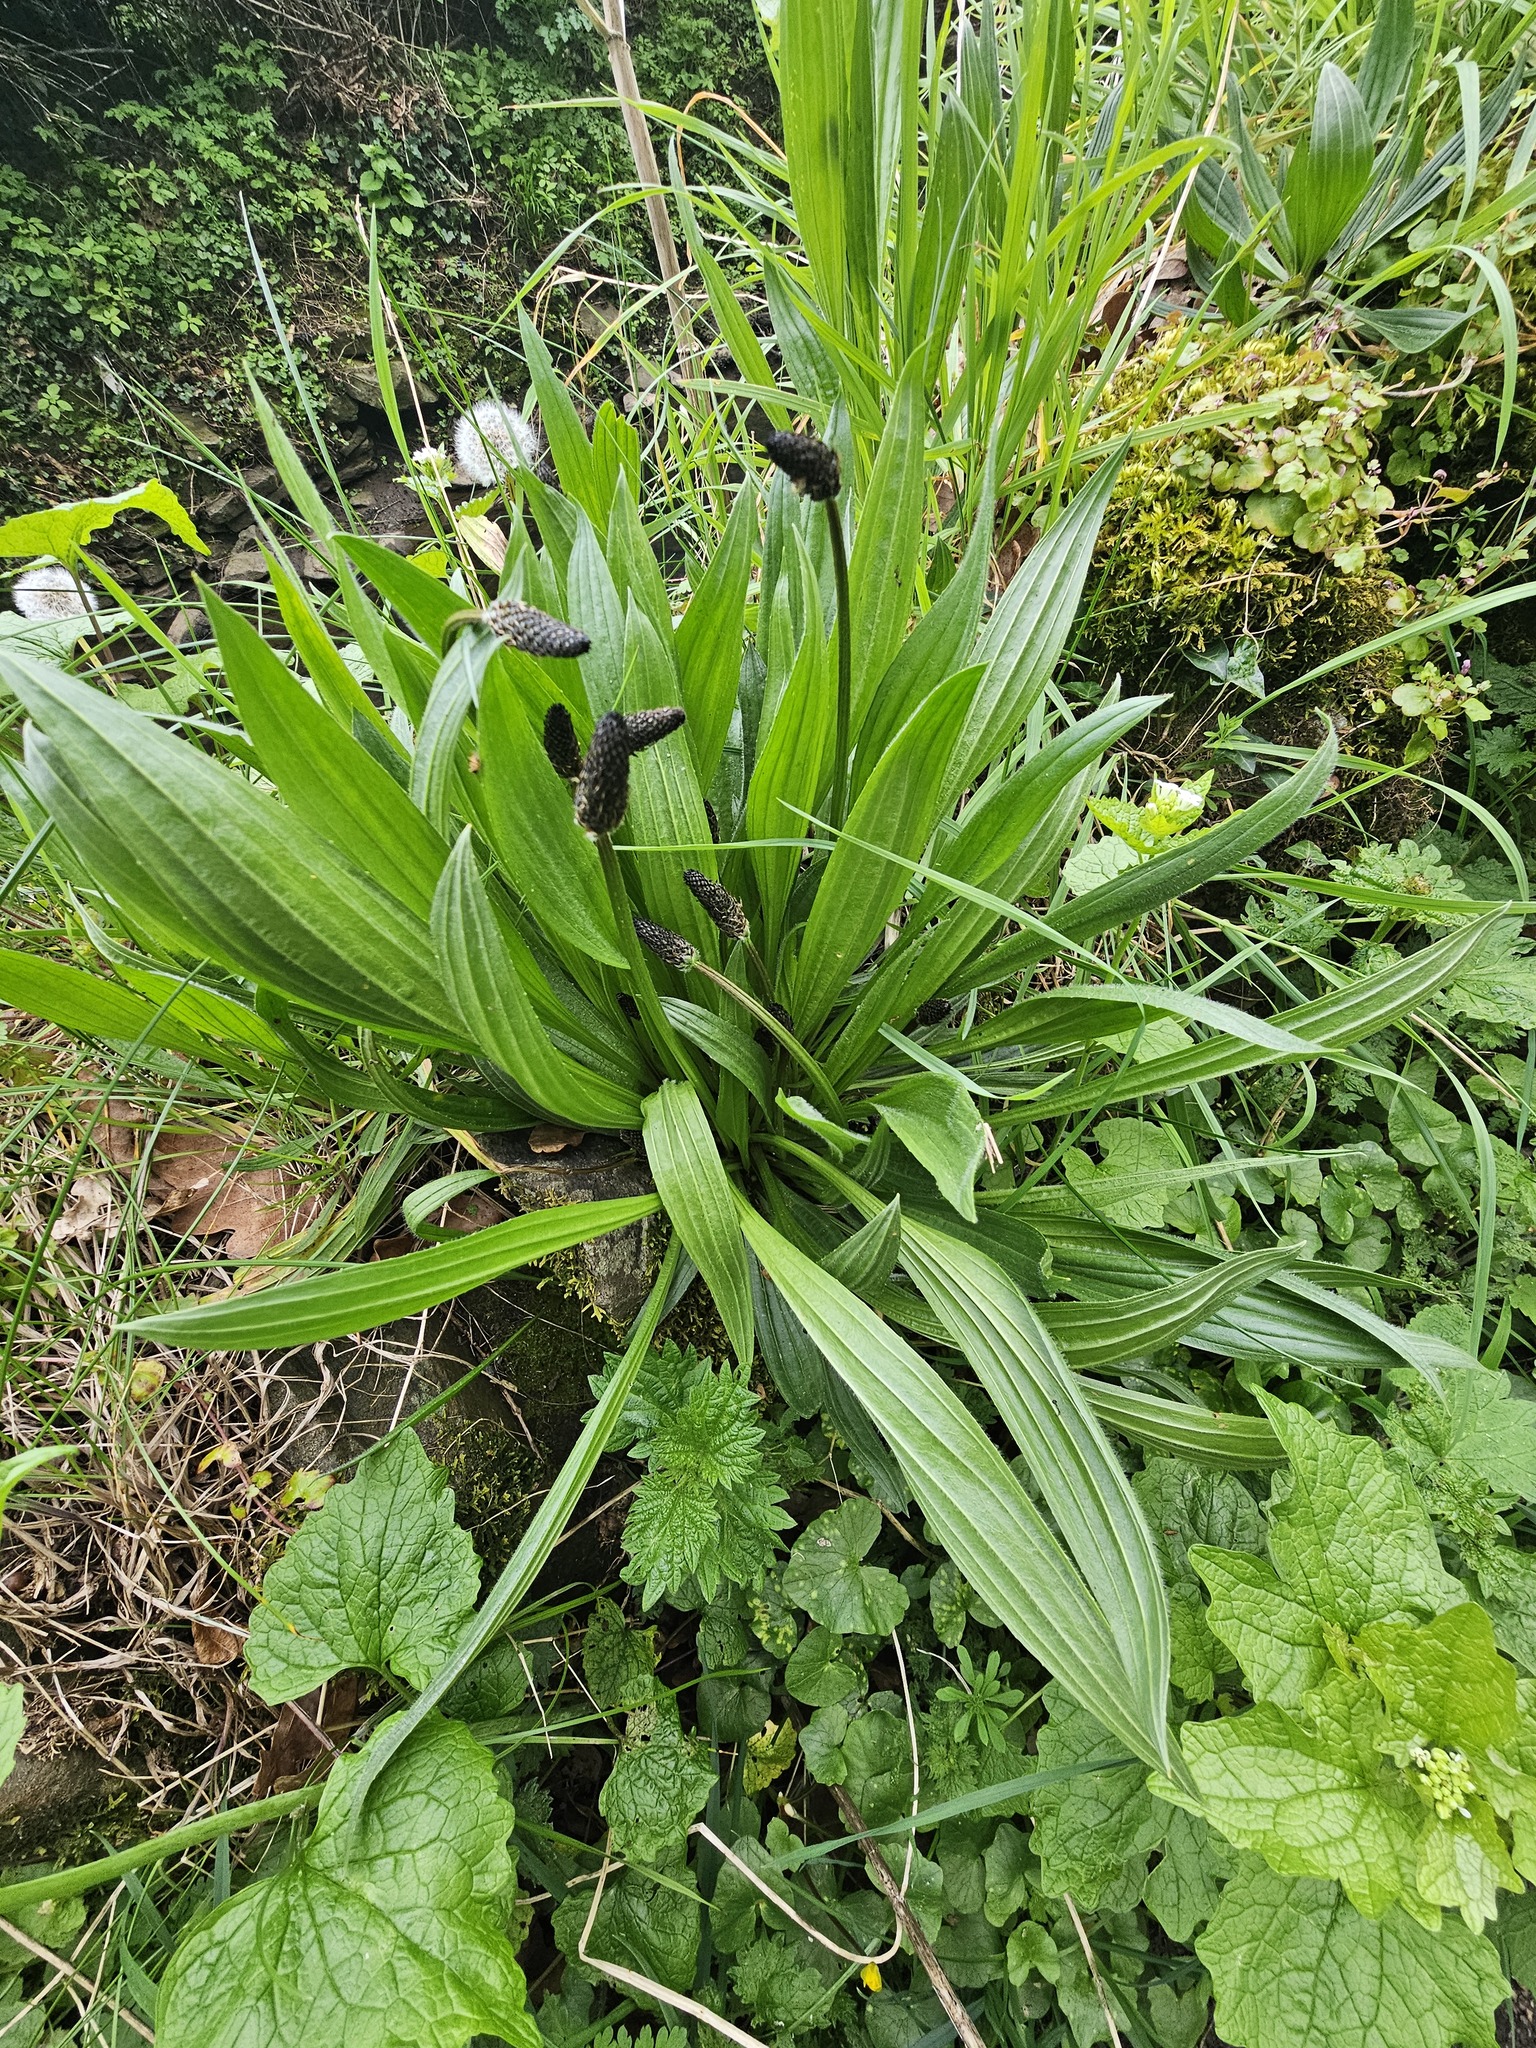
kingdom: Plantae
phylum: Tracheophyta
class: Magnoliopsida
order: Lamiales
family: Plantaginaceae
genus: Plantago
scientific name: Plantago lanceolata
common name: Ribwort plantain
